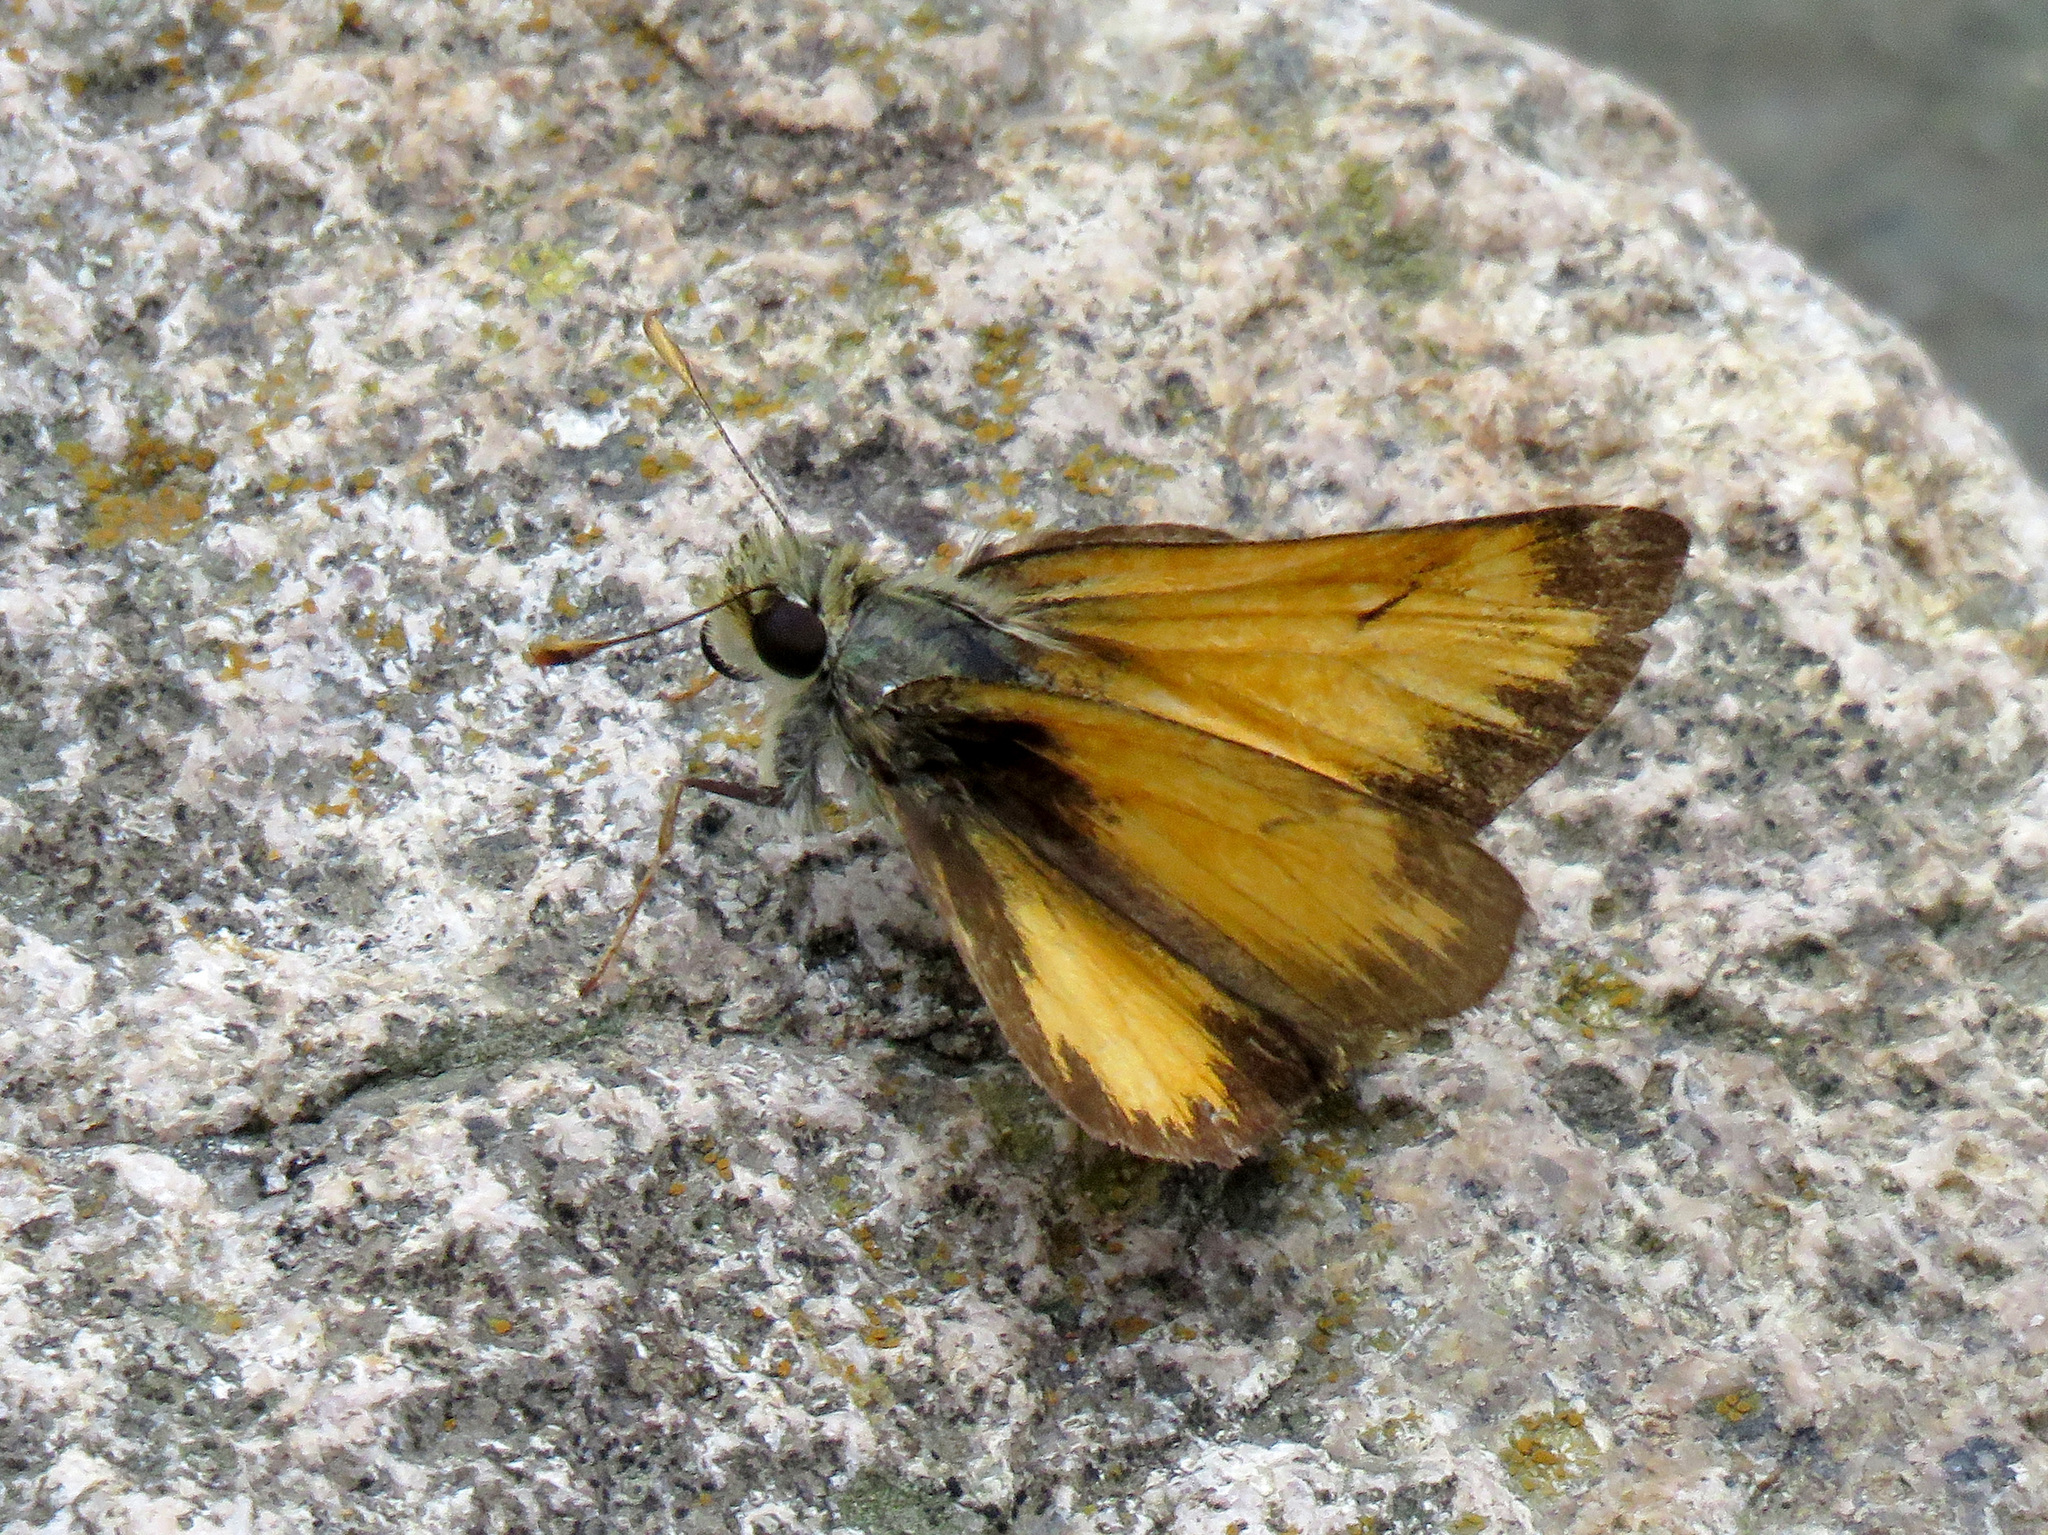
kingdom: Animalia
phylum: Arthropoda
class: Insecta
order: Lepidoptera
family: Hesperiidae
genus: Lon
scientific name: Lon taxiles
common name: Taxiles skipper
